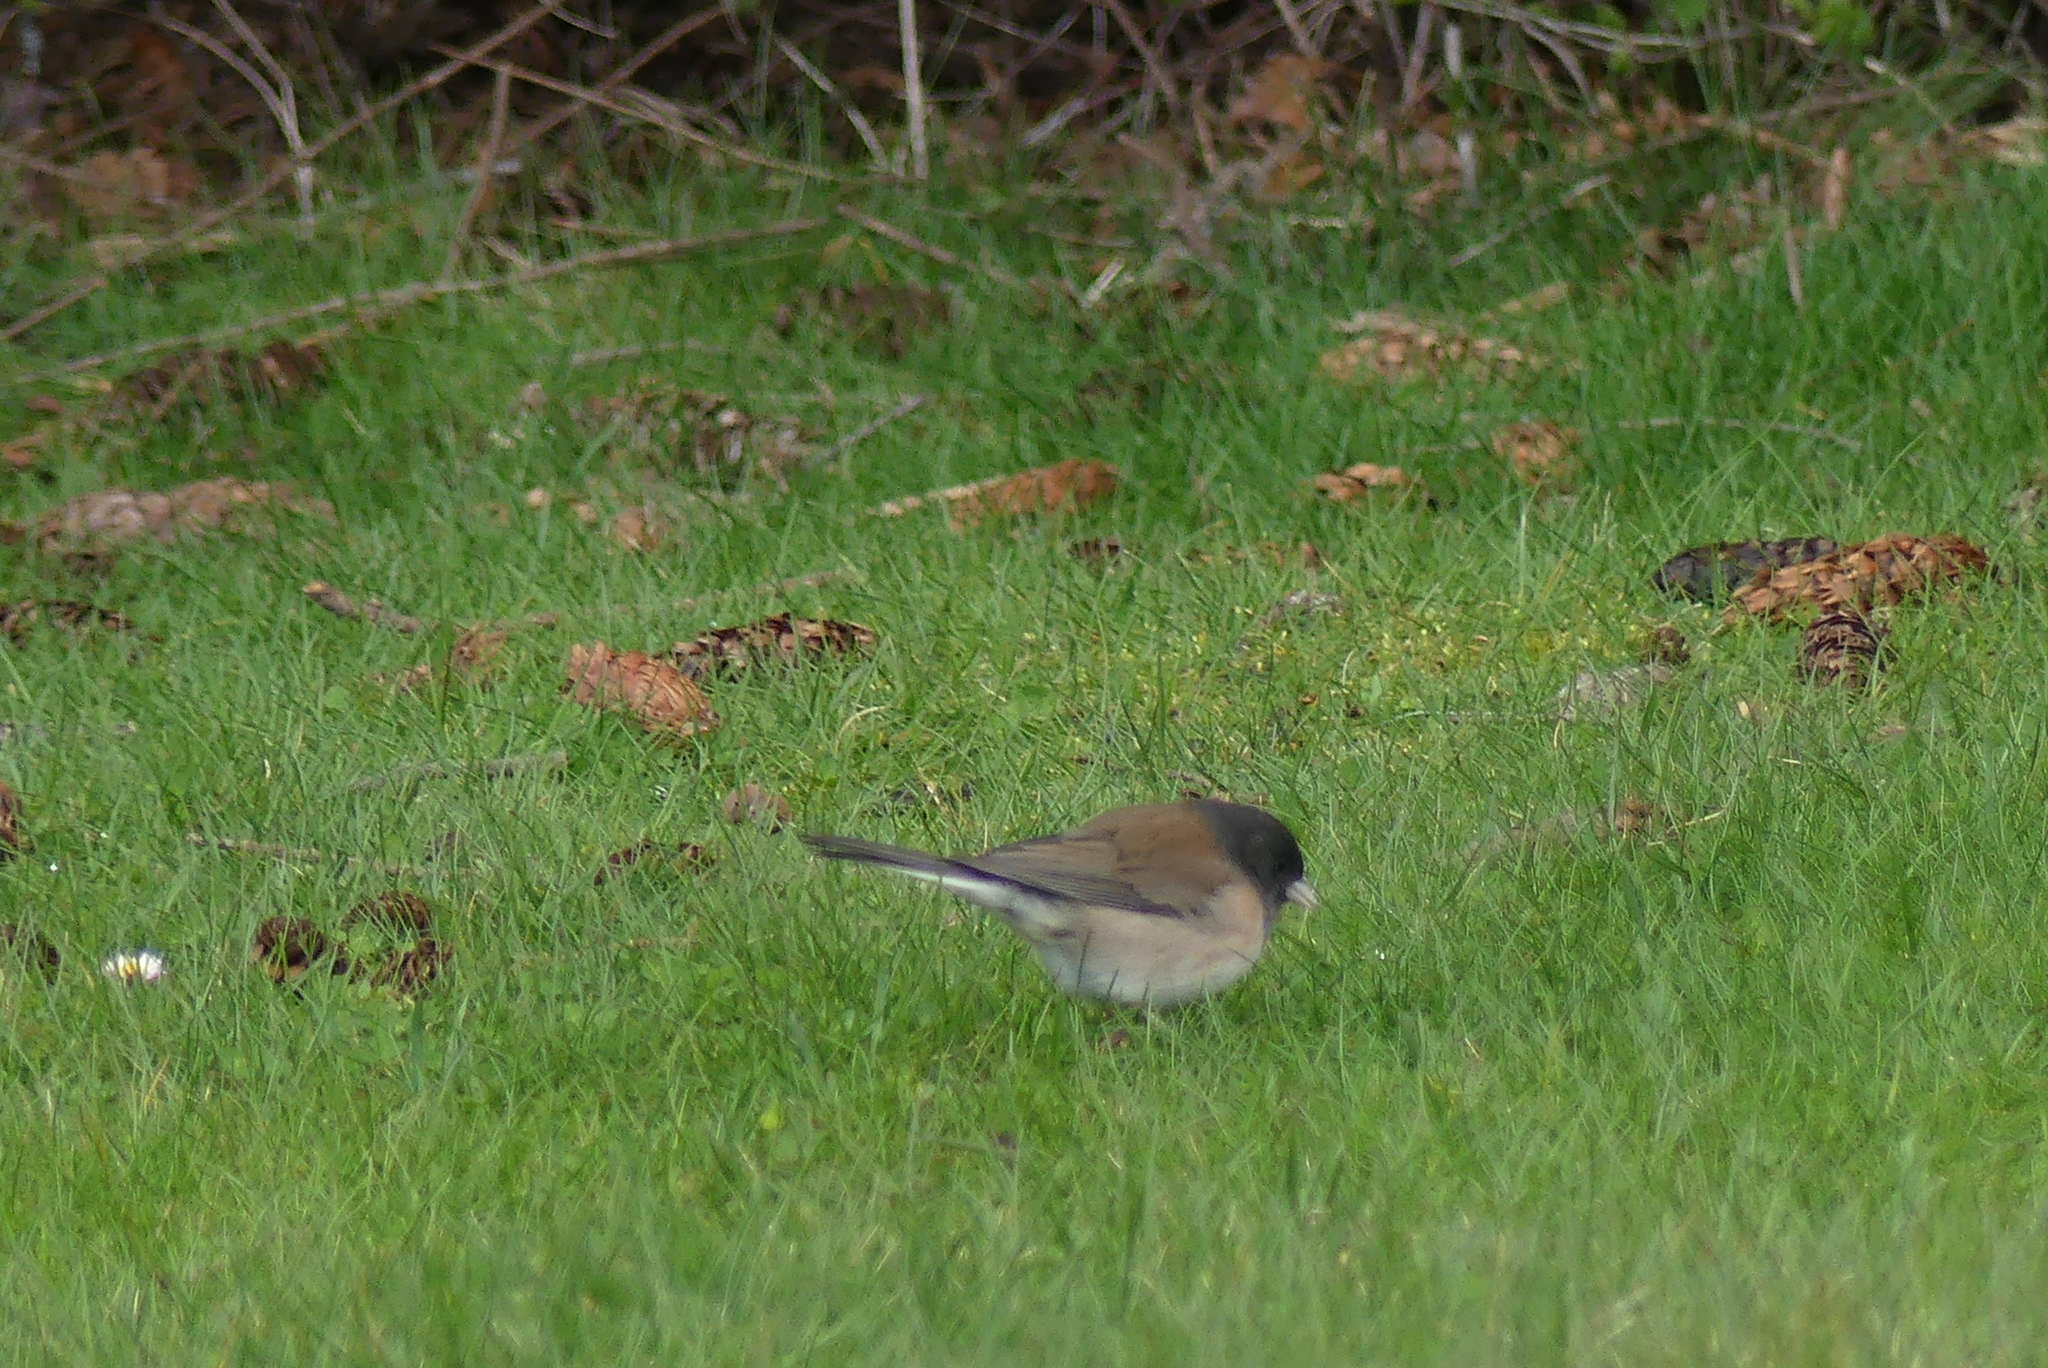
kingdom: Animalia
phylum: Chordata
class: Aves
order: Passeriformes
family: Passerellidae
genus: Junco
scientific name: Junco hyemalis
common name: Dark-eyed junco
